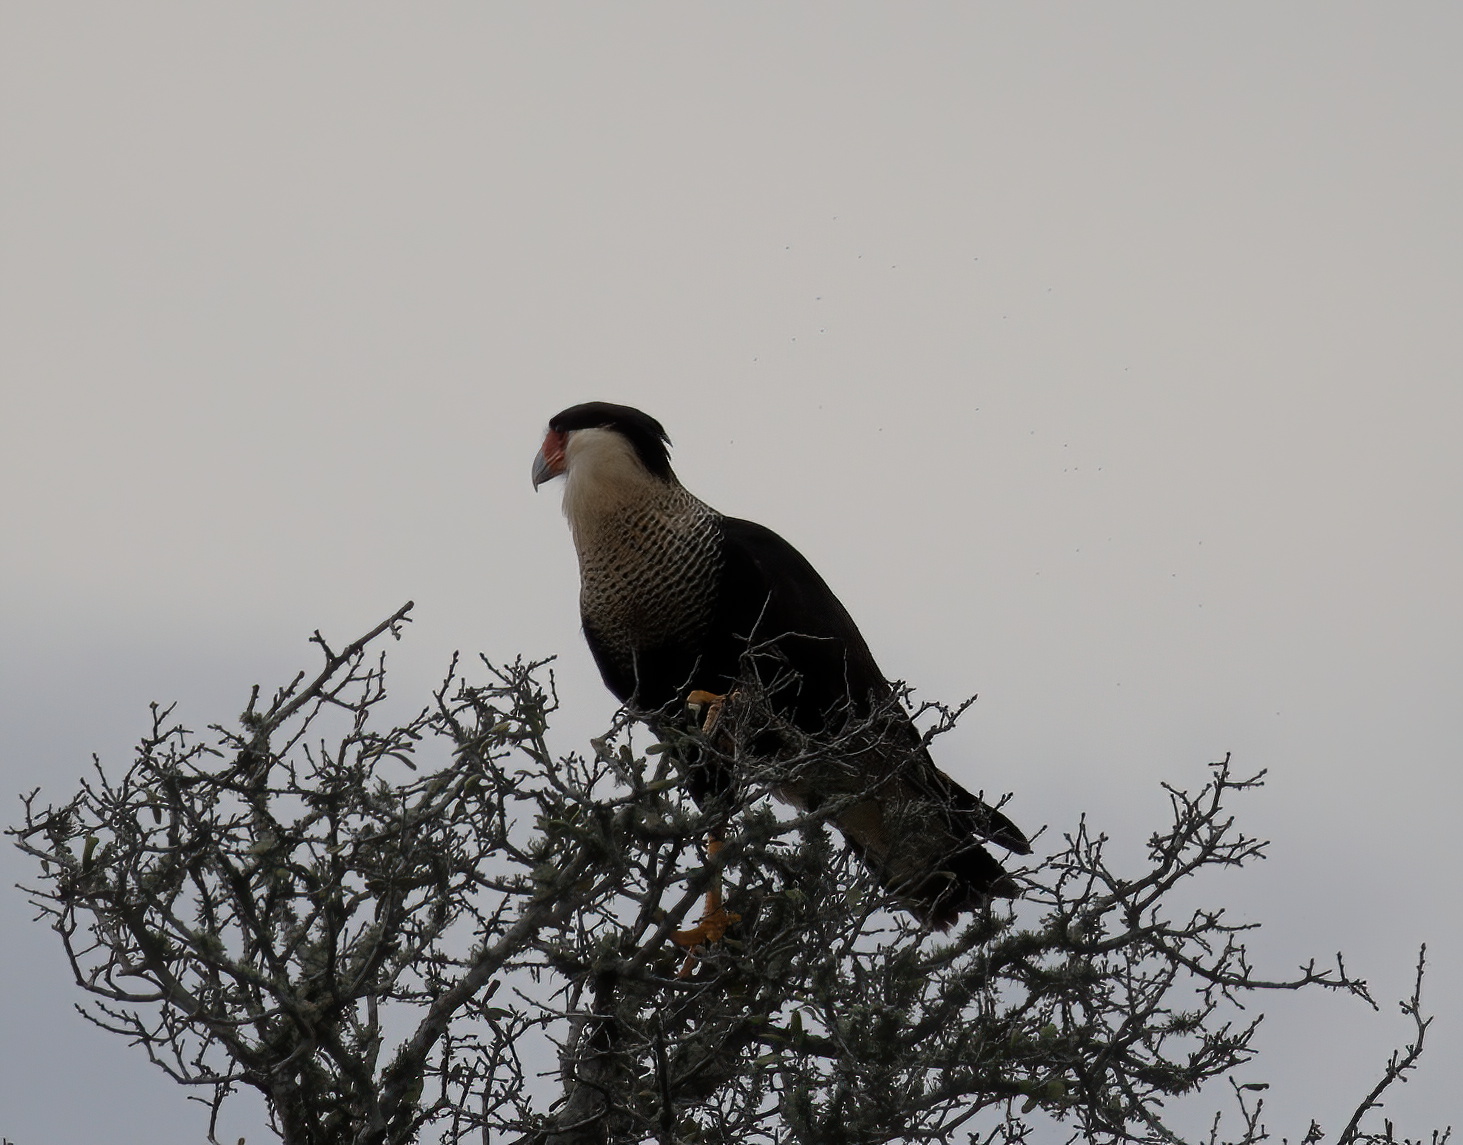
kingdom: Animalia
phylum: Chordata
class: Aves
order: Falconiformes
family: Falconidae
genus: Caracara
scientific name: Caracara plancus
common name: Southern caracara
